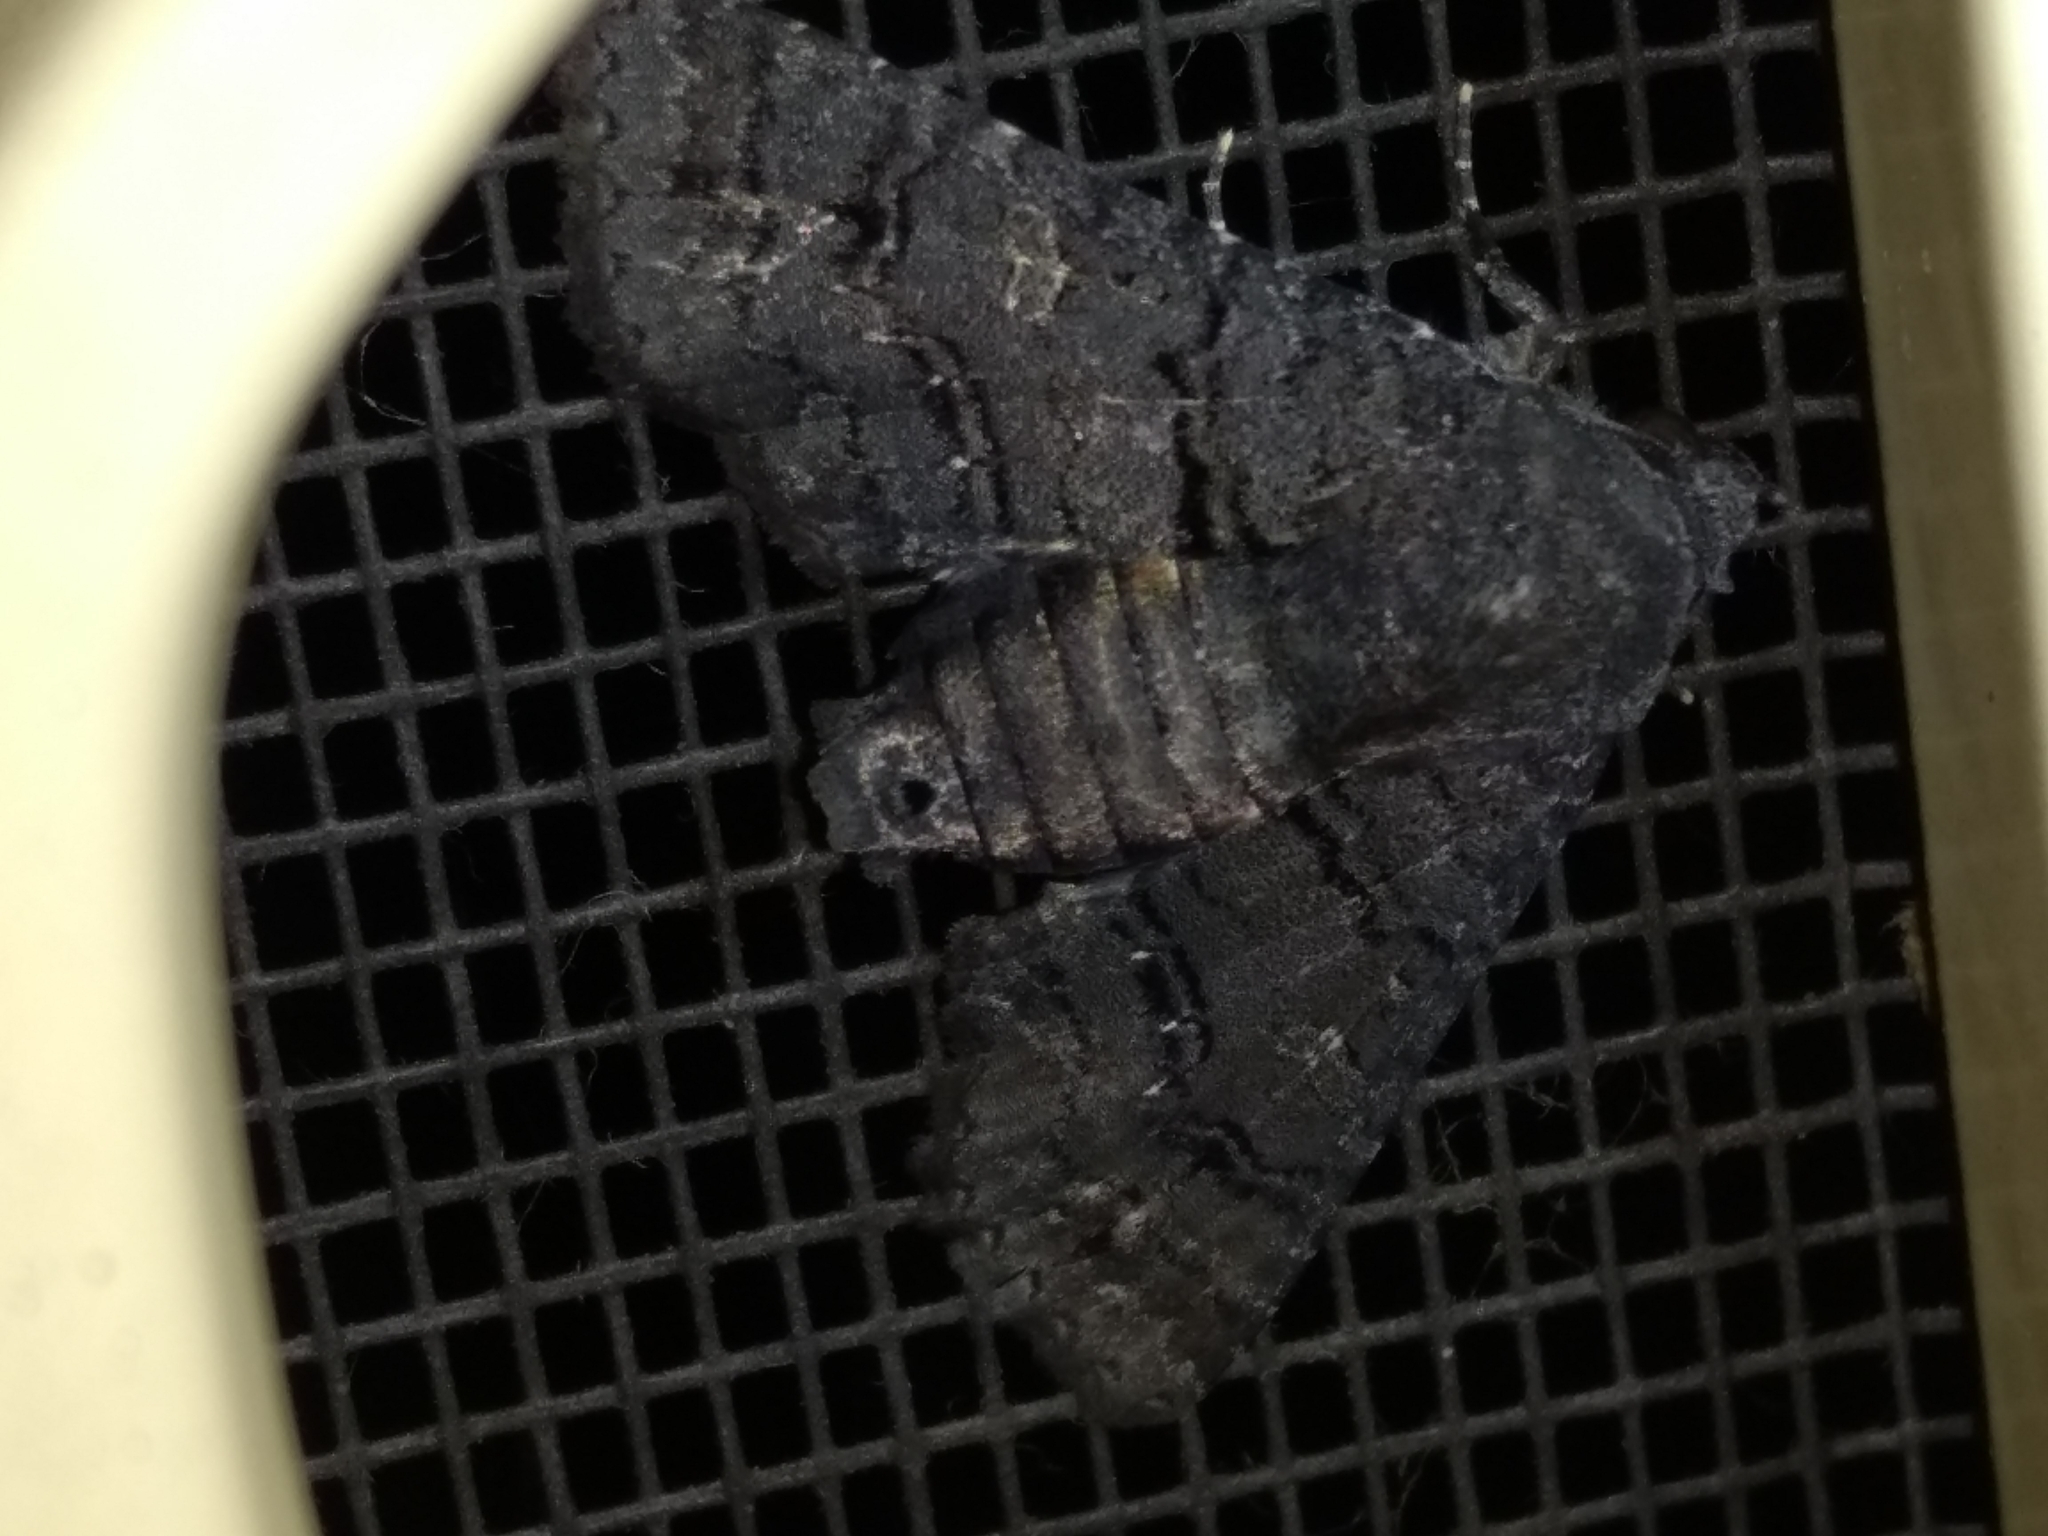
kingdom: Animalia
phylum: Arthropoda
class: Insecta
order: Lepidoptera
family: Euteliidae
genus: Pataeta
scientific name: Pataeta carbo
